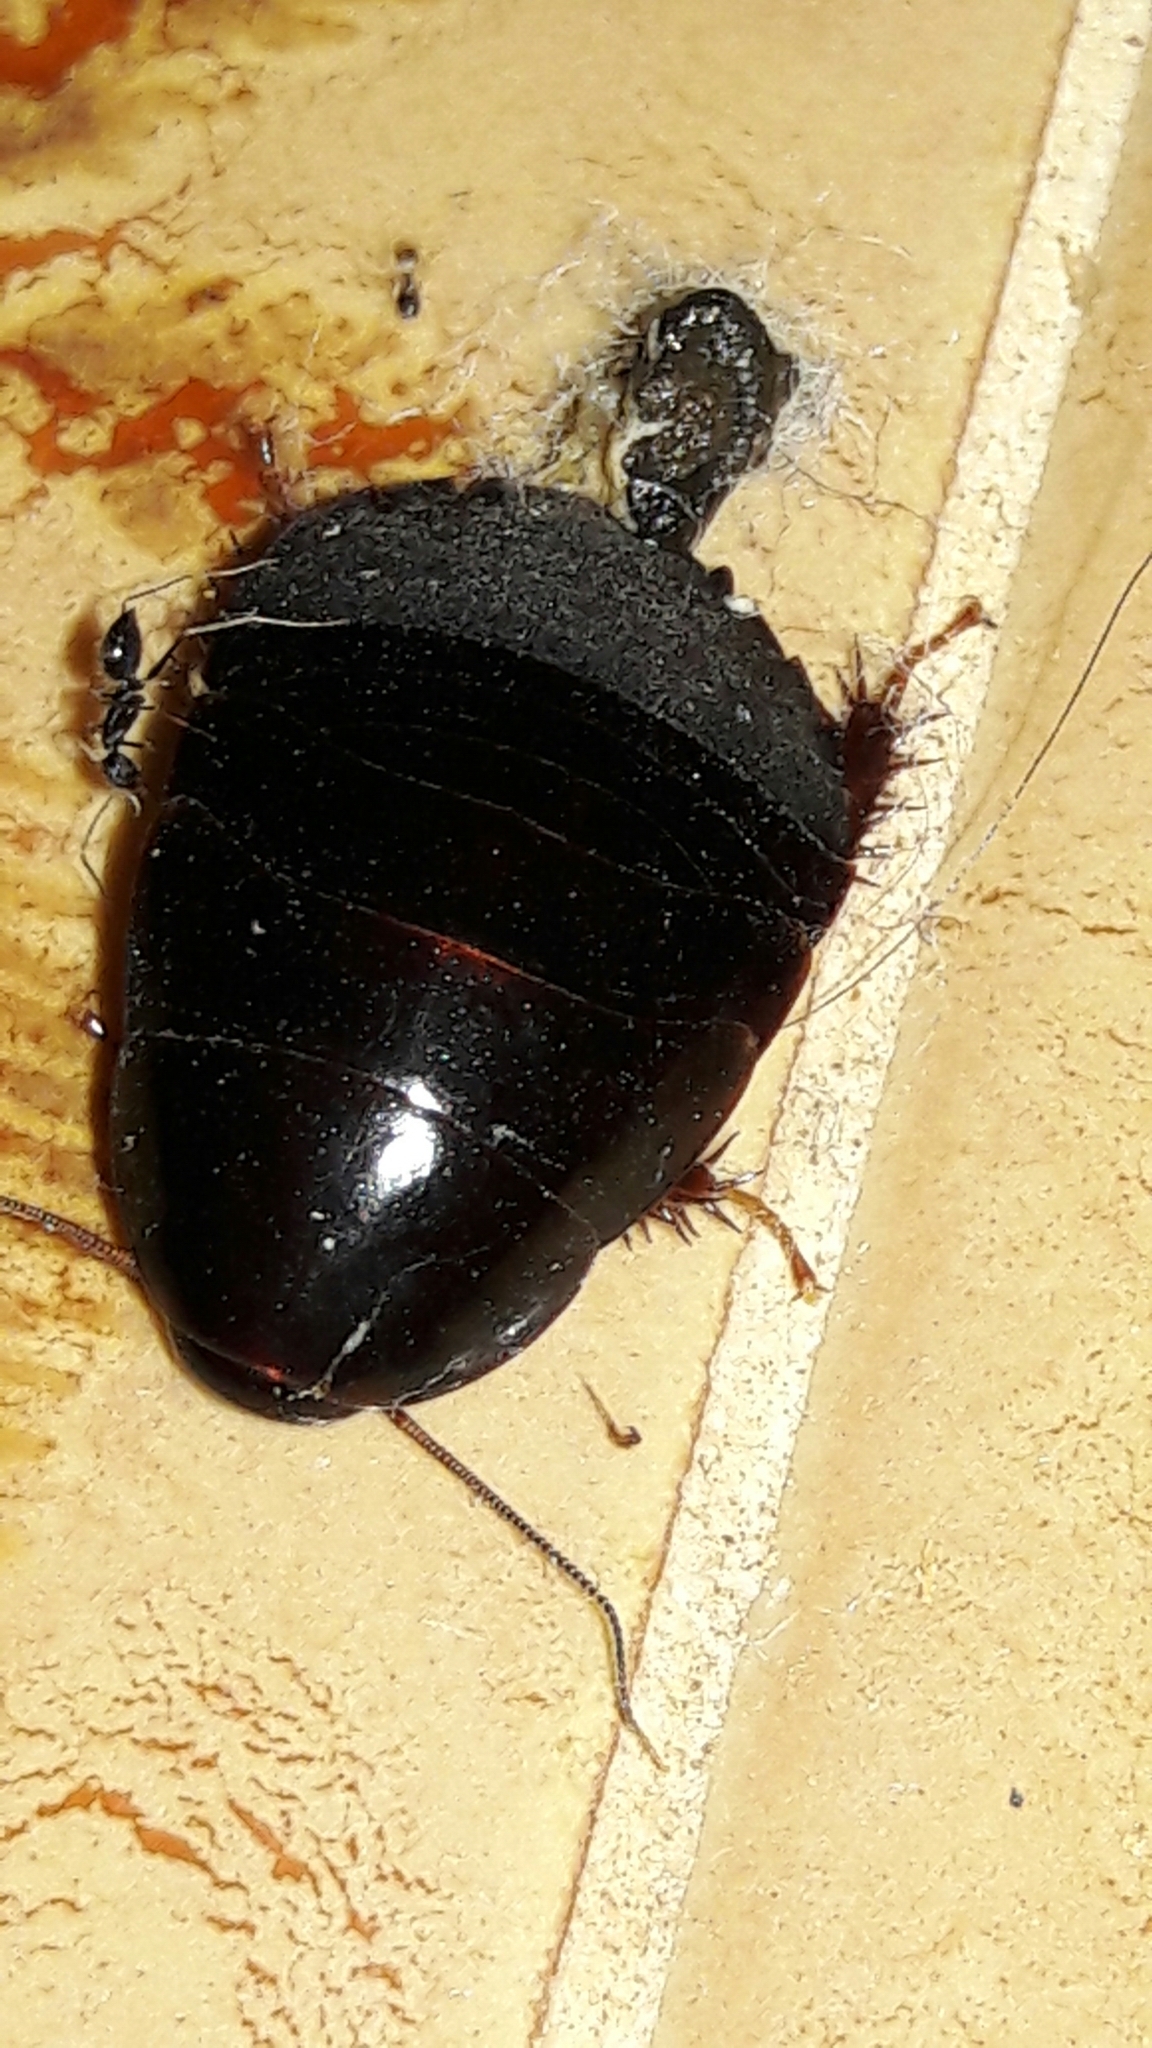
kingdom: Animalia
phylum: Arthropoda
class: Insecta
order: Blattodea
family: Blaberidae
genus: Pycnoscelus
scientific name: Pycnoscelus surinamensis
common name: Surinam cockroach
